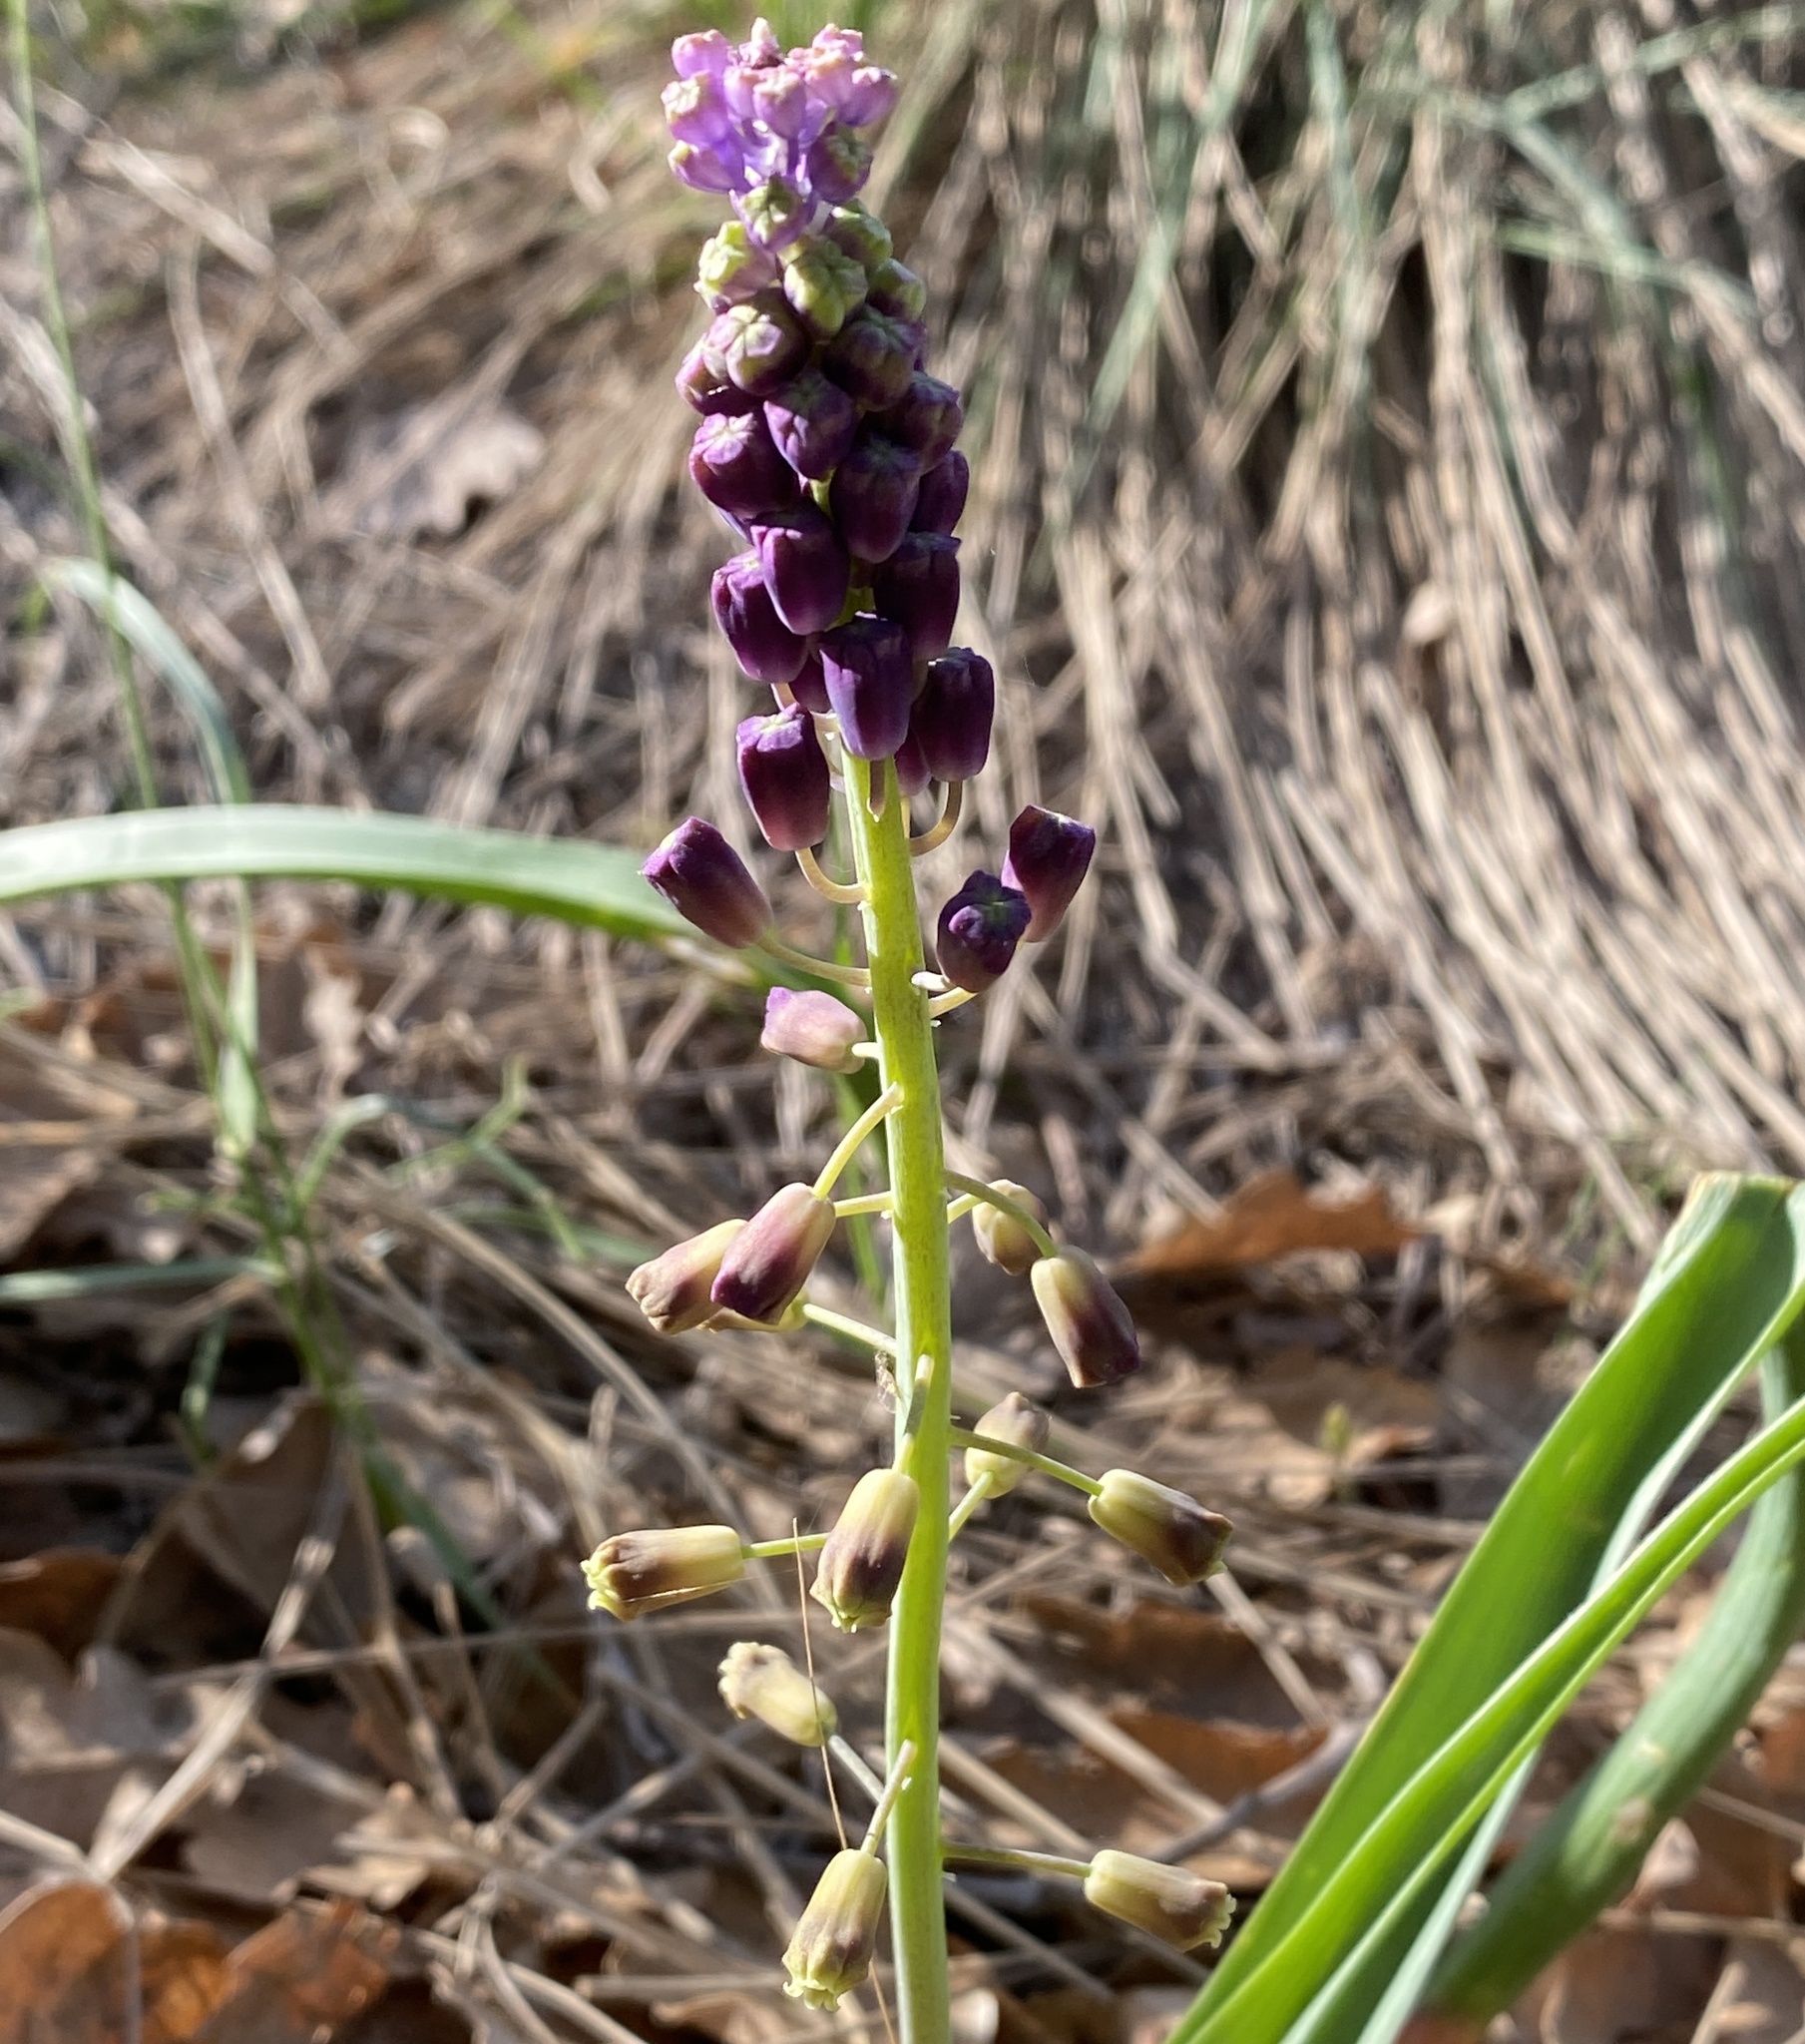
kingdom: Plantae
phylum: Tracheophyta
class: Liliopsida
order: Asparagales
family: Asparagaceae
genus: Muscari
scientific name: Muscari comosum
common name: Tassel hyacinth
